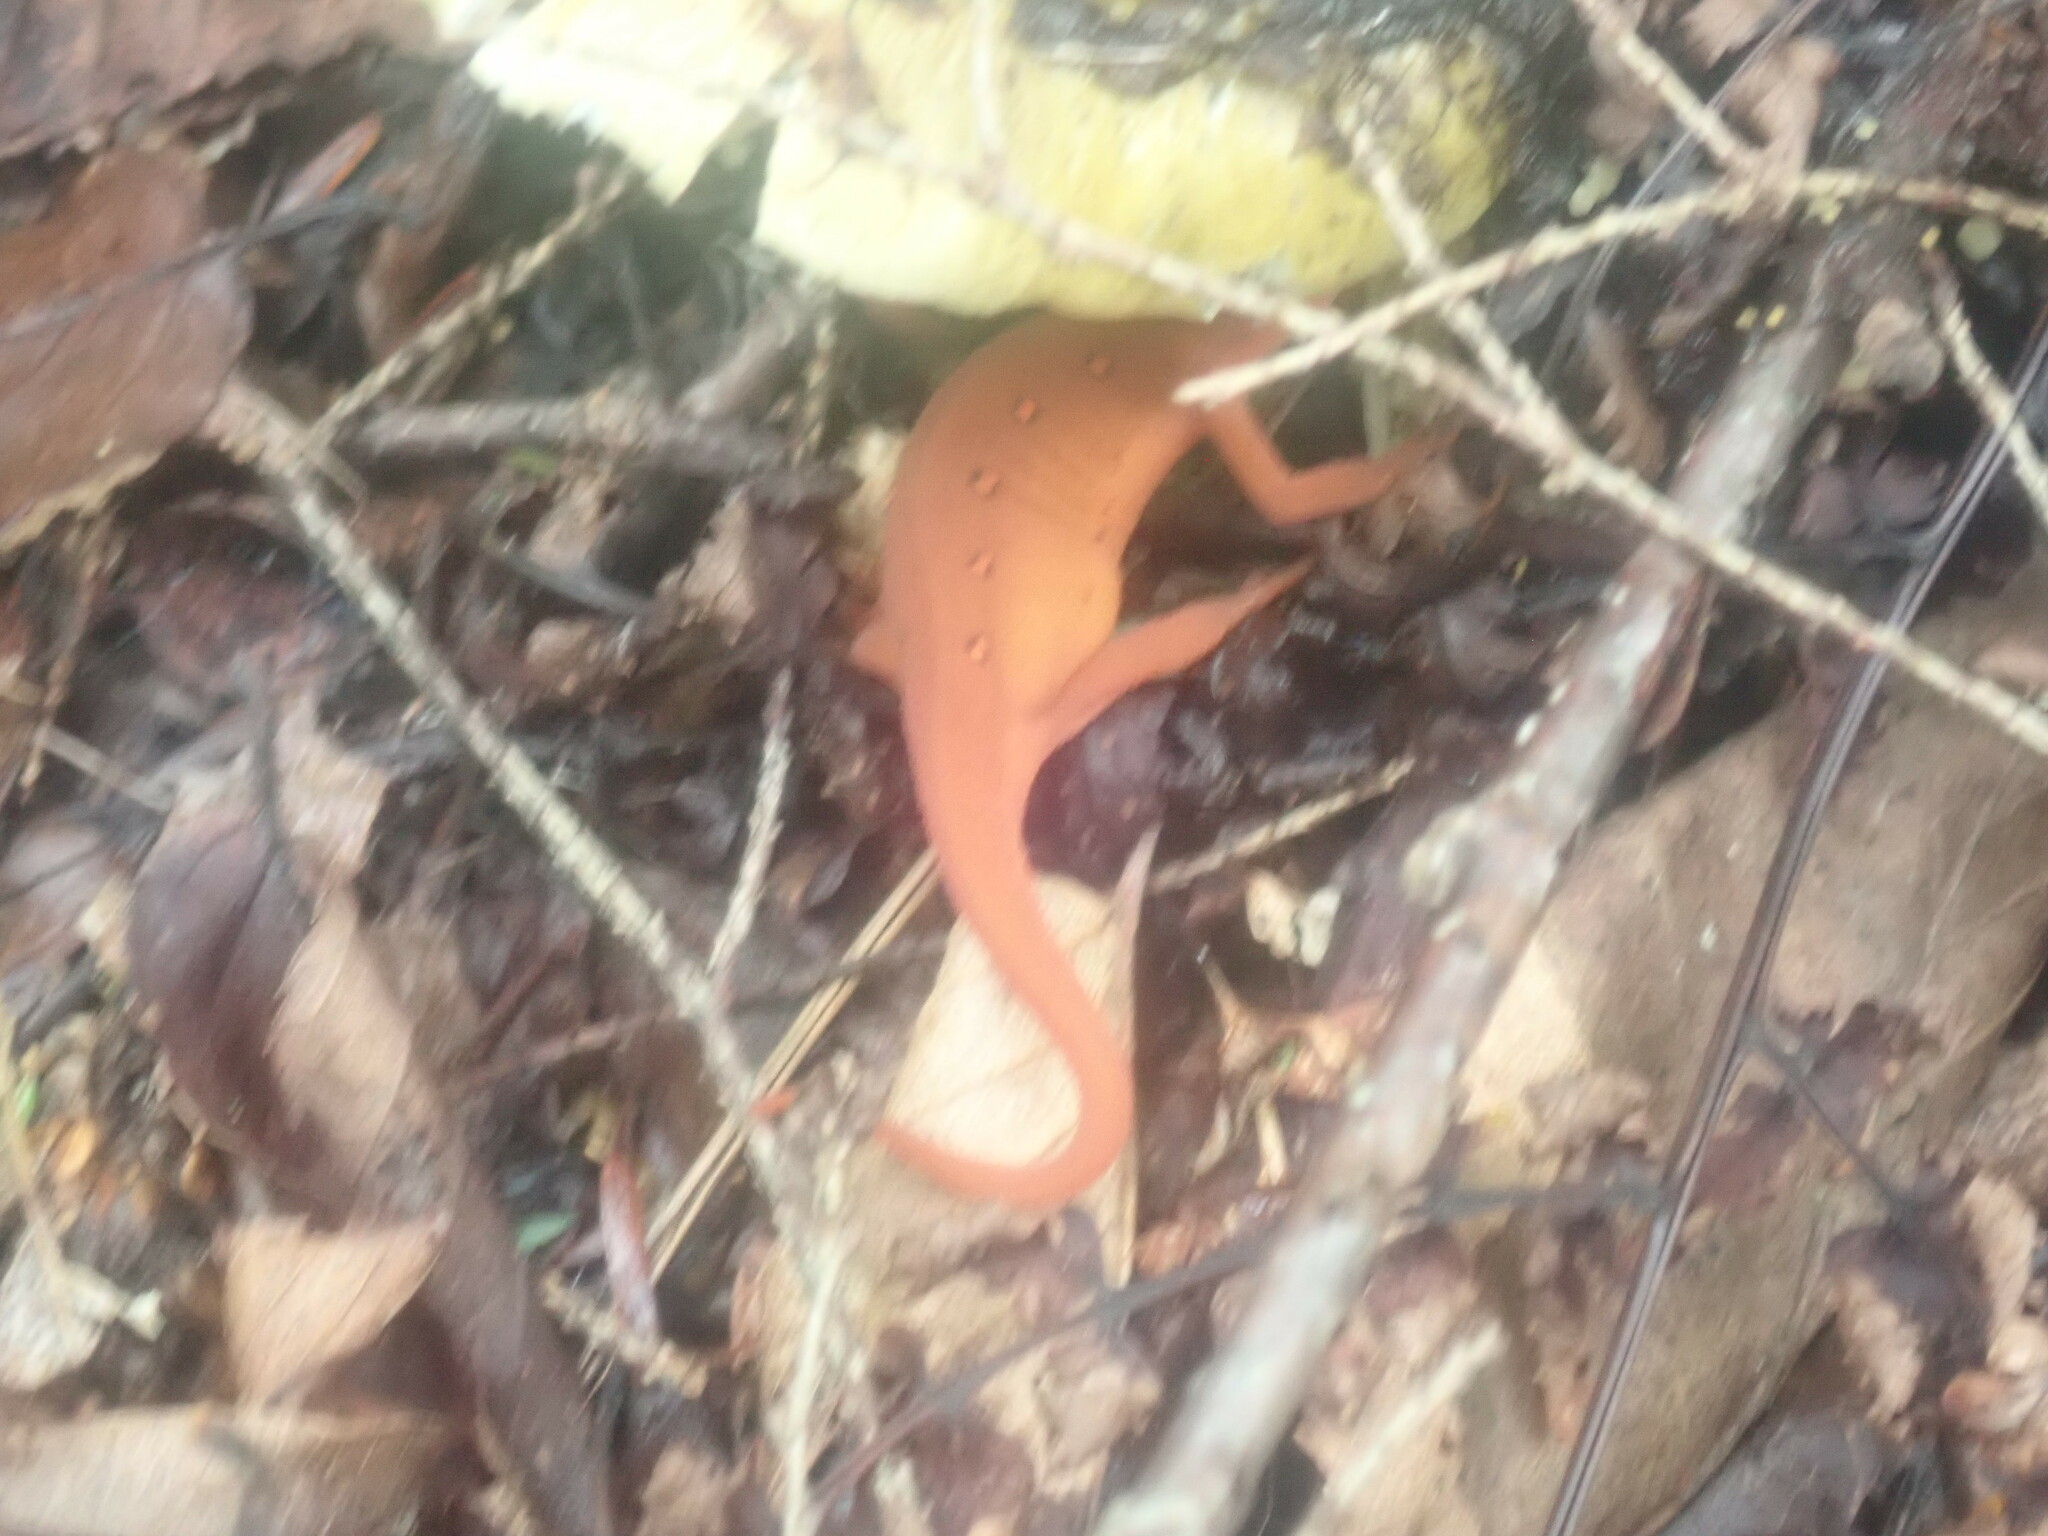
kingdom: Animalia
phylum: Chordata
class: Amphibia
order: Caudata
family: Salamandridae
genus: Notophthalmus
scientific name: Notophthalmus viridescens
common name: Eastern newt
